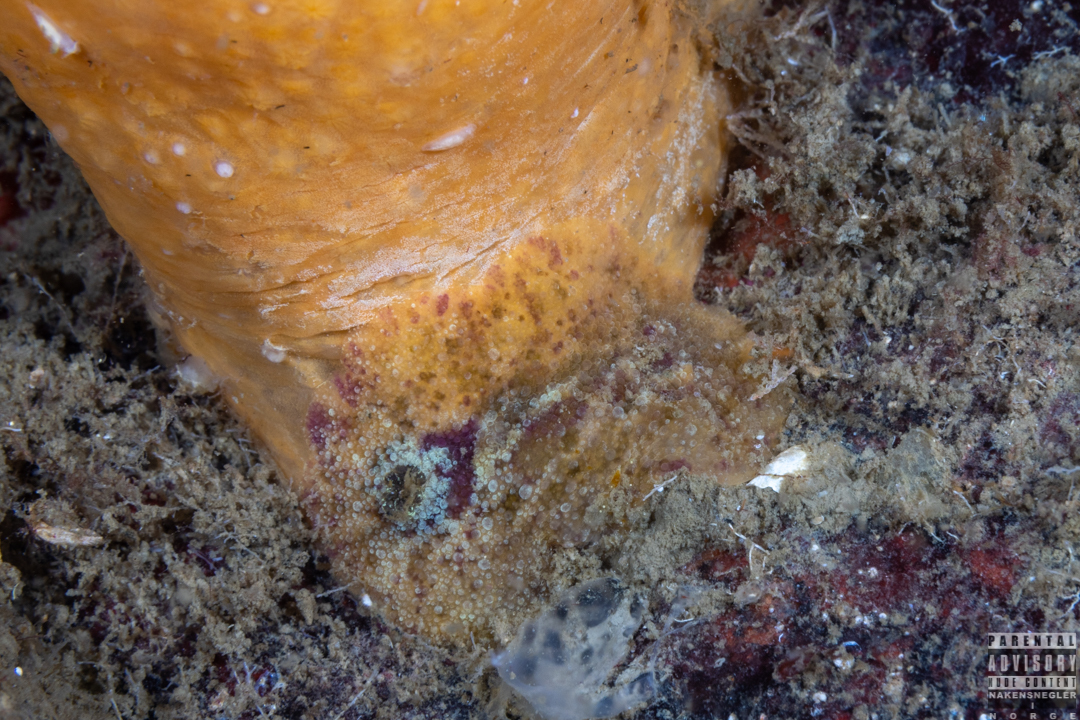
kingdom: Animalia
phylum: Mollusca
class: Gastropoda
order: Nudibranchia
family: Dorididae
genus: Doris
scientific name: Doris pseudoargus
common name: Sea lemon
